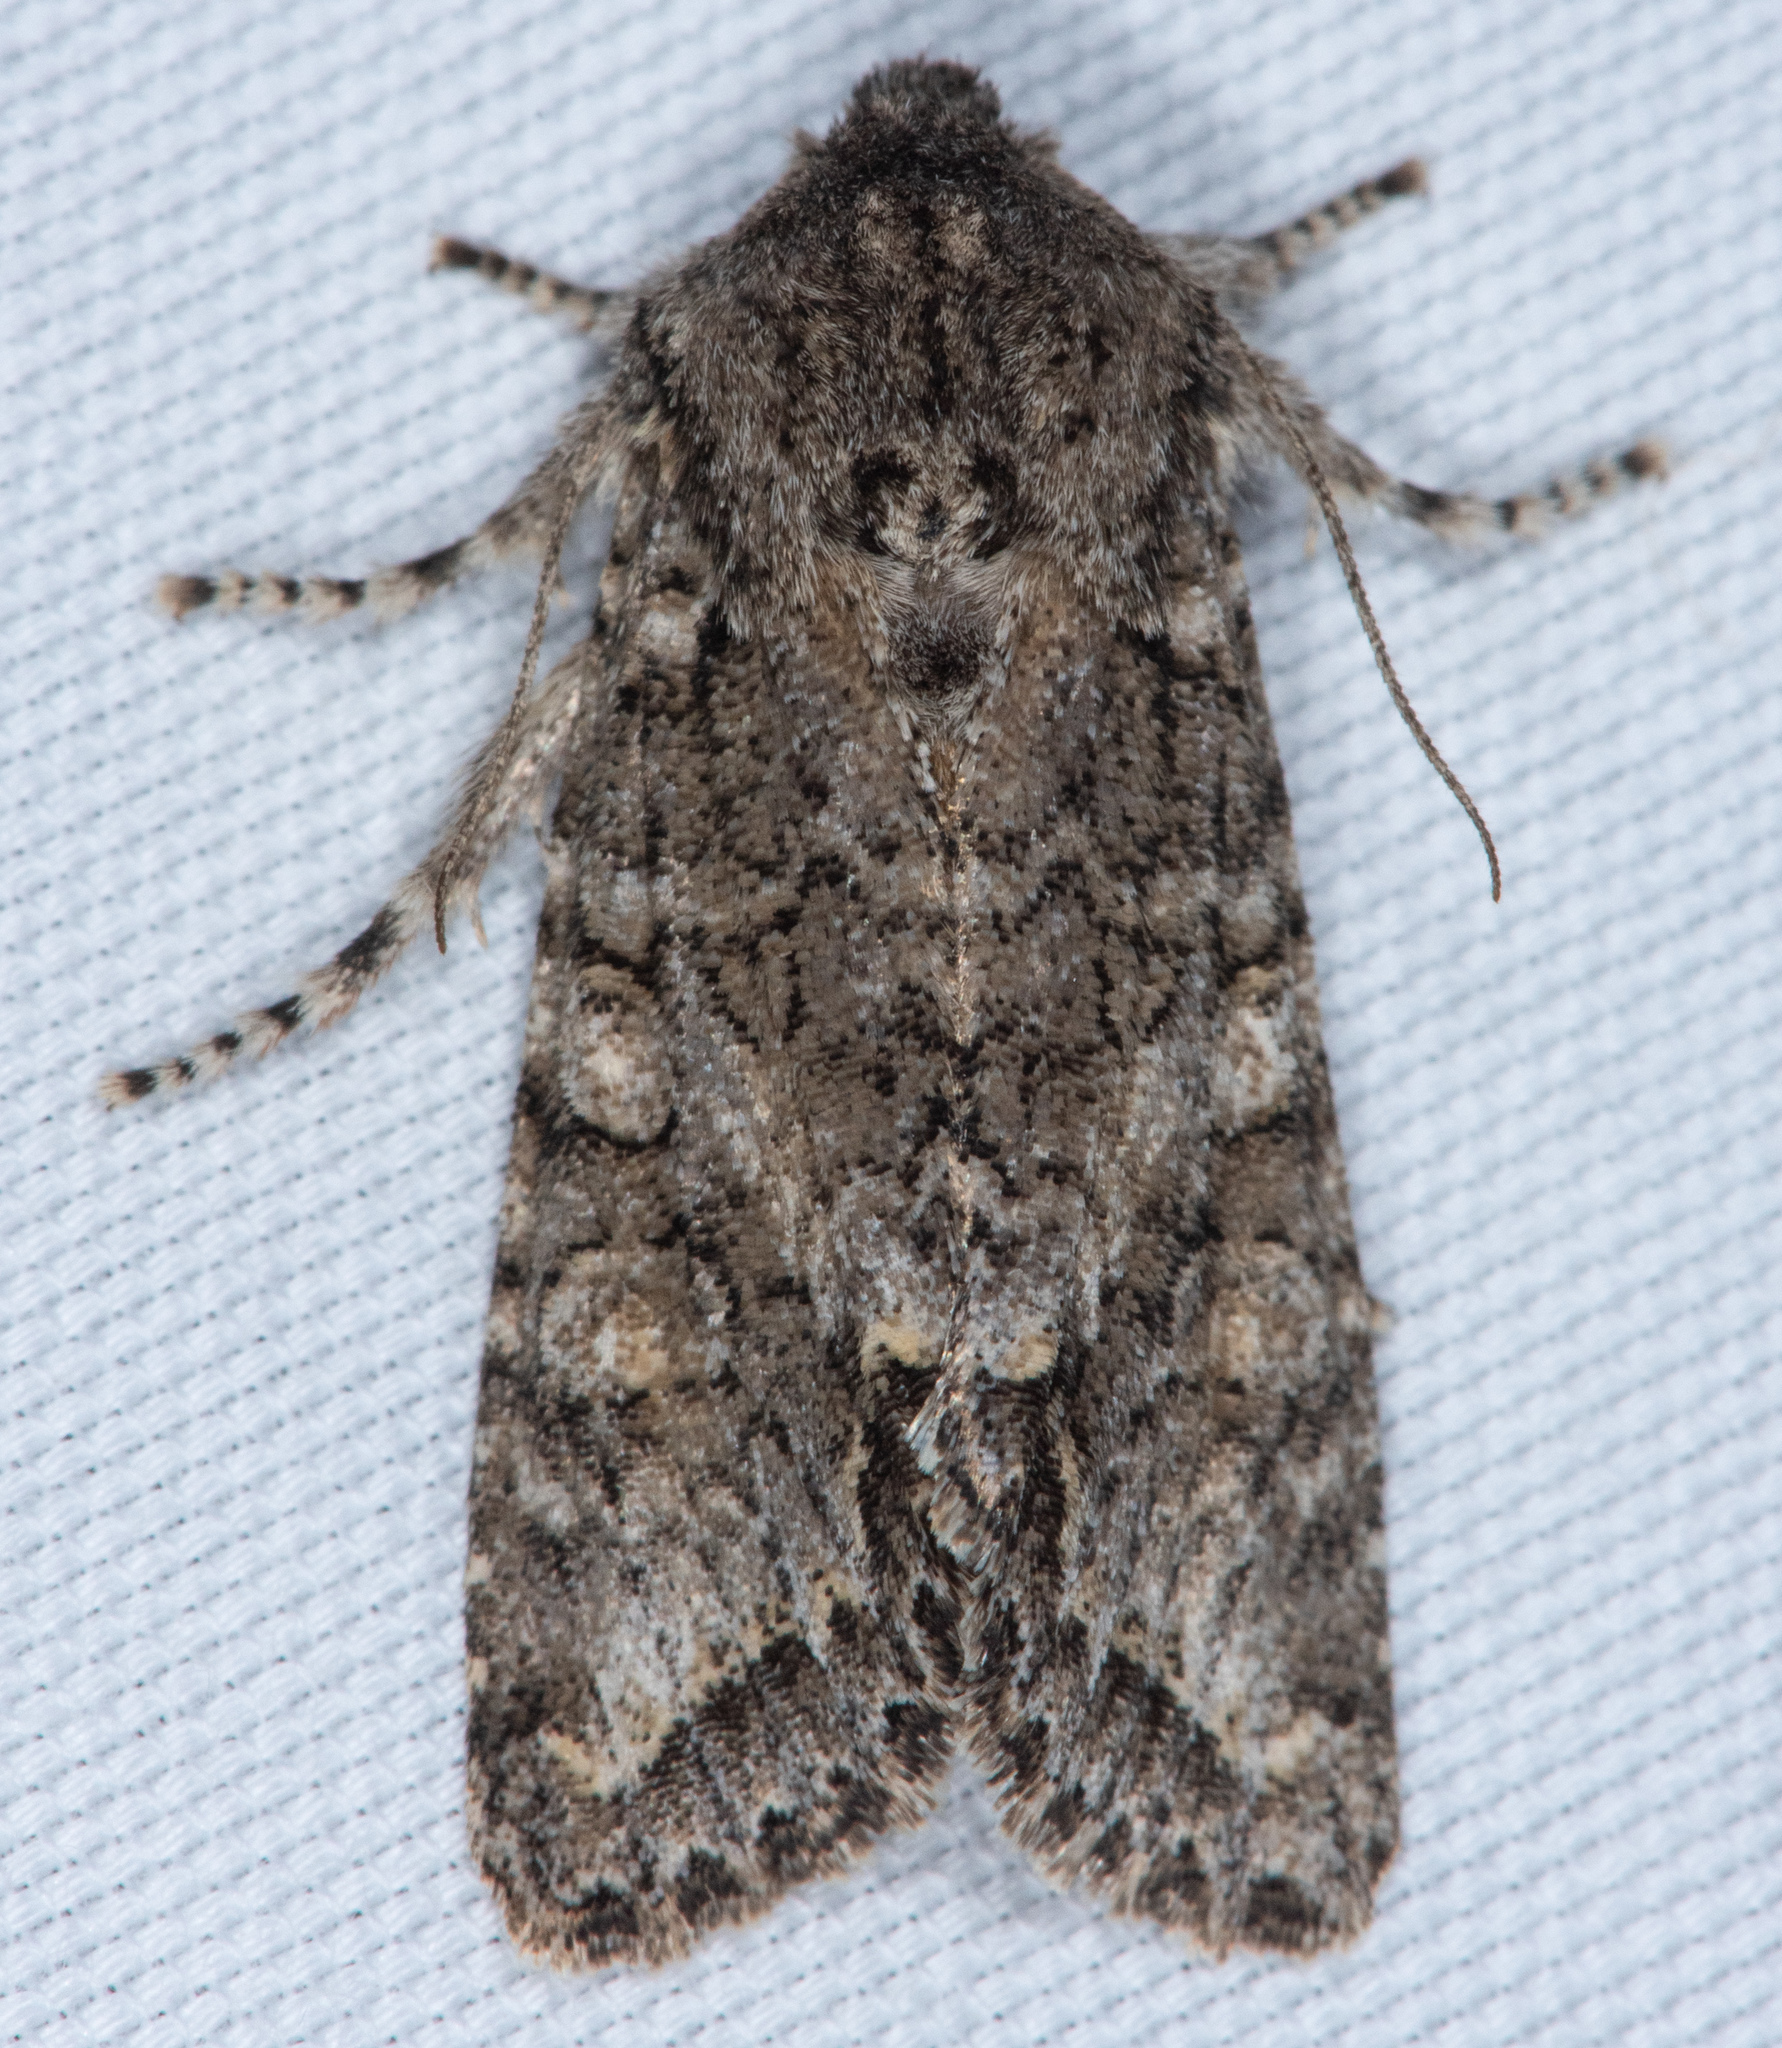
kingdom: Animalia
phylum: Arthropoda
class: Insecta
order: Lepidoptera
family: Noctuidae
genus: Egira
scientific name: Egira hiemalis
